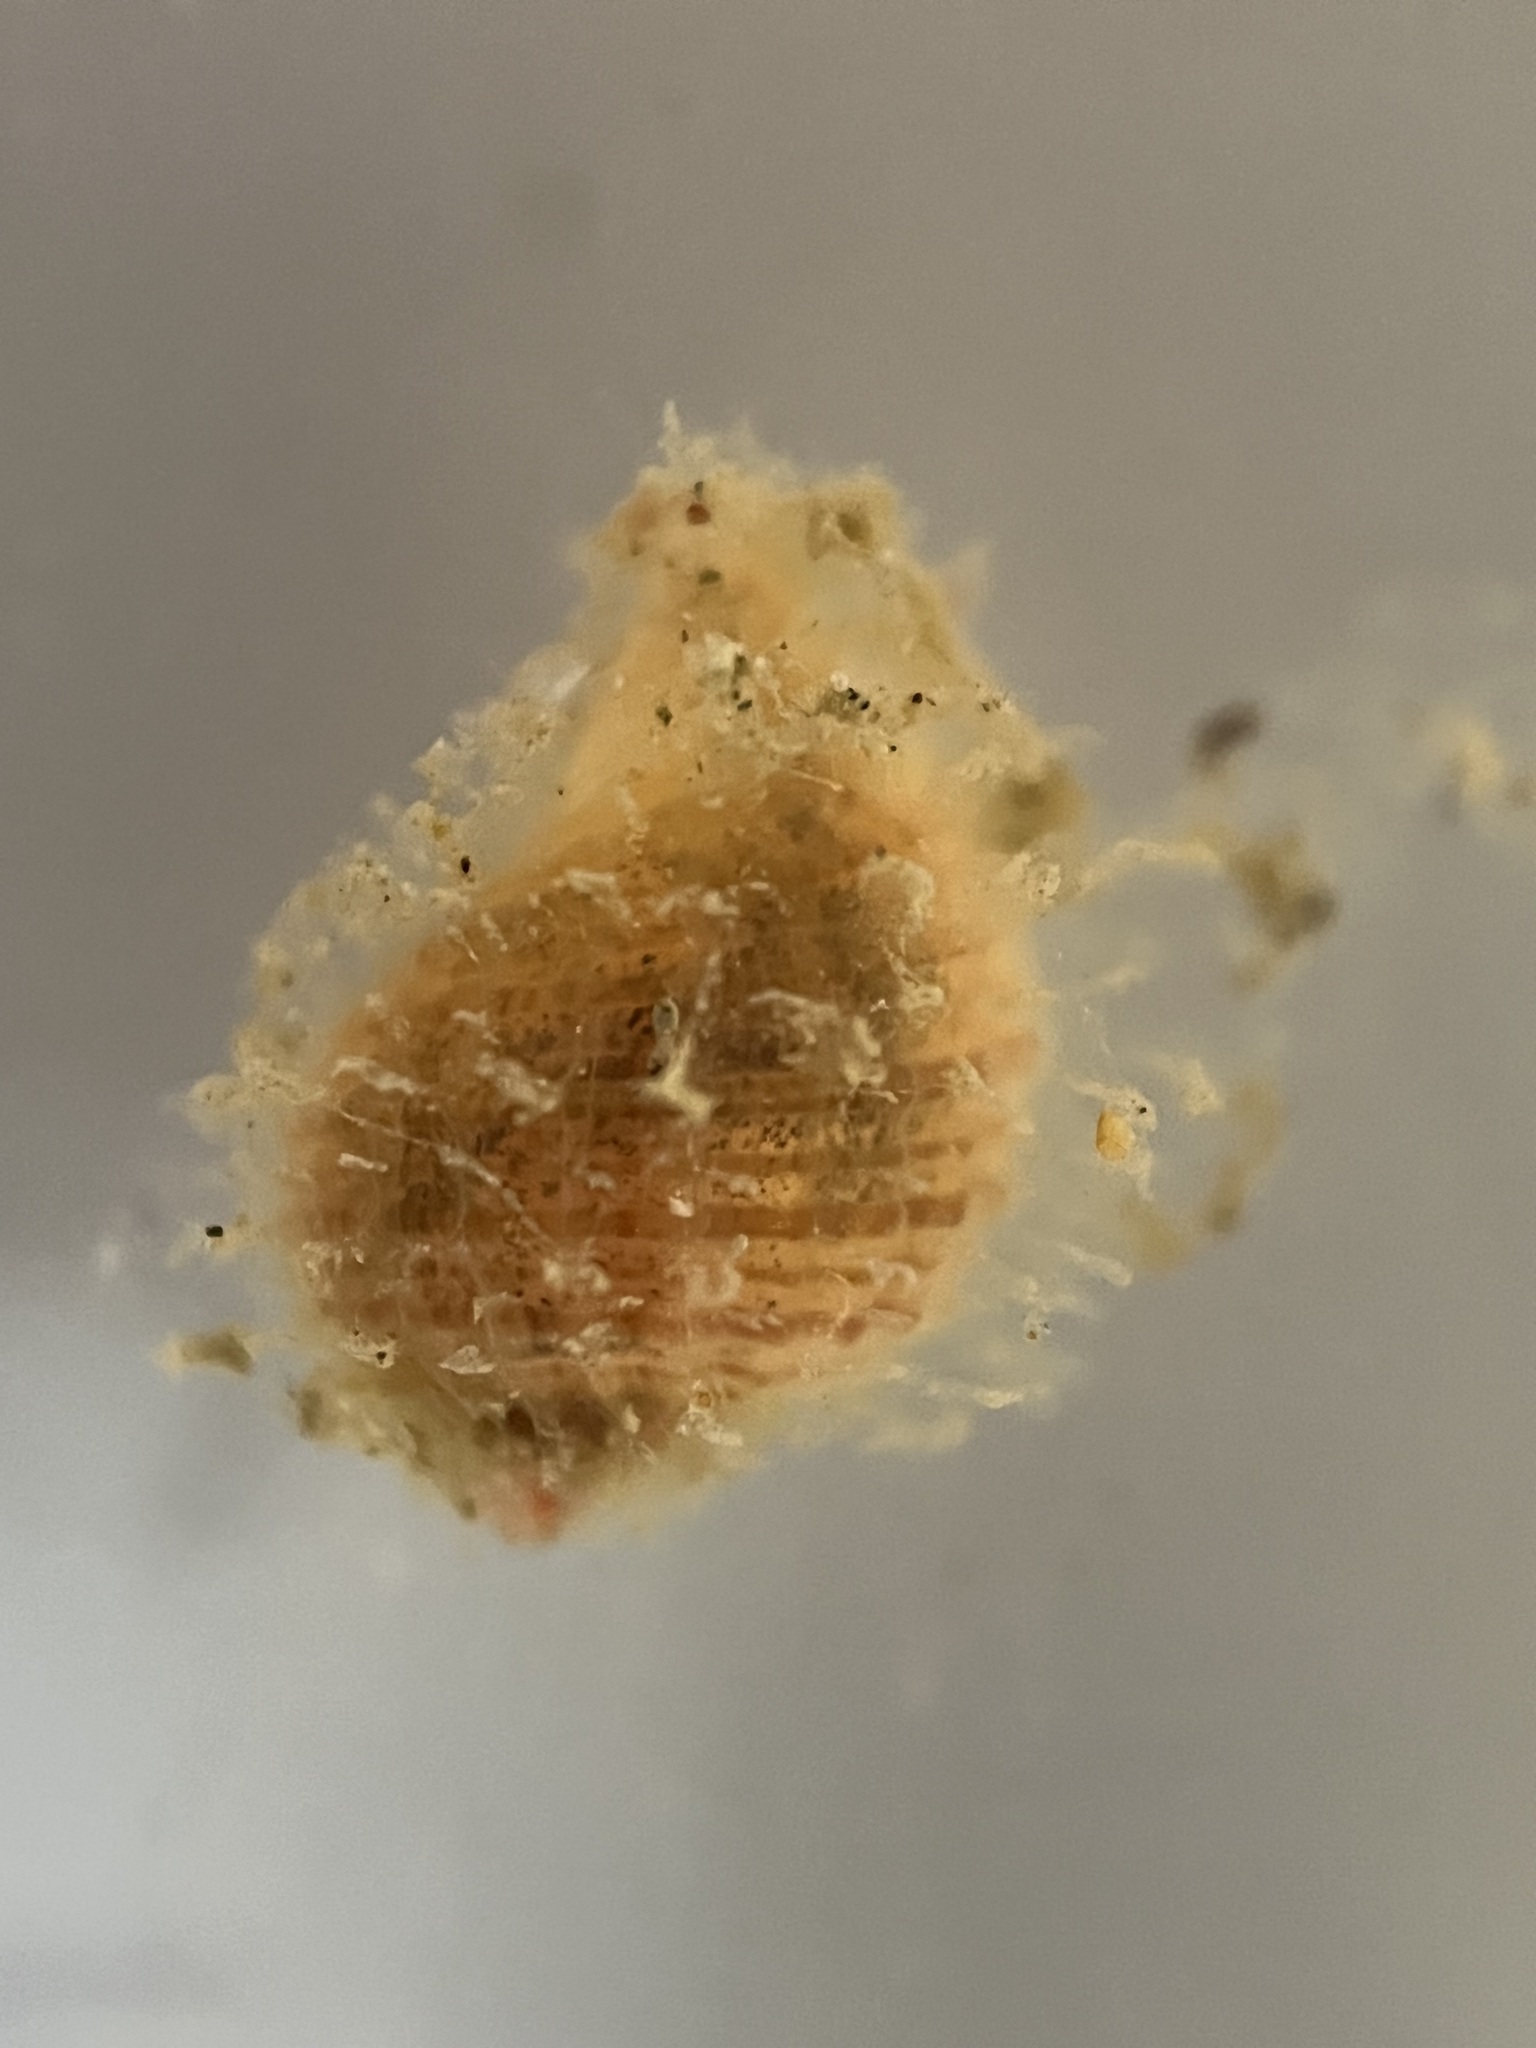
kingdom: Animalia
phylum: Mollusca
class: Gastropoda
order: Littorinimorpha
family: Cymatiidae
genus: Cabestana
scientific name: Cabestana spengleri
